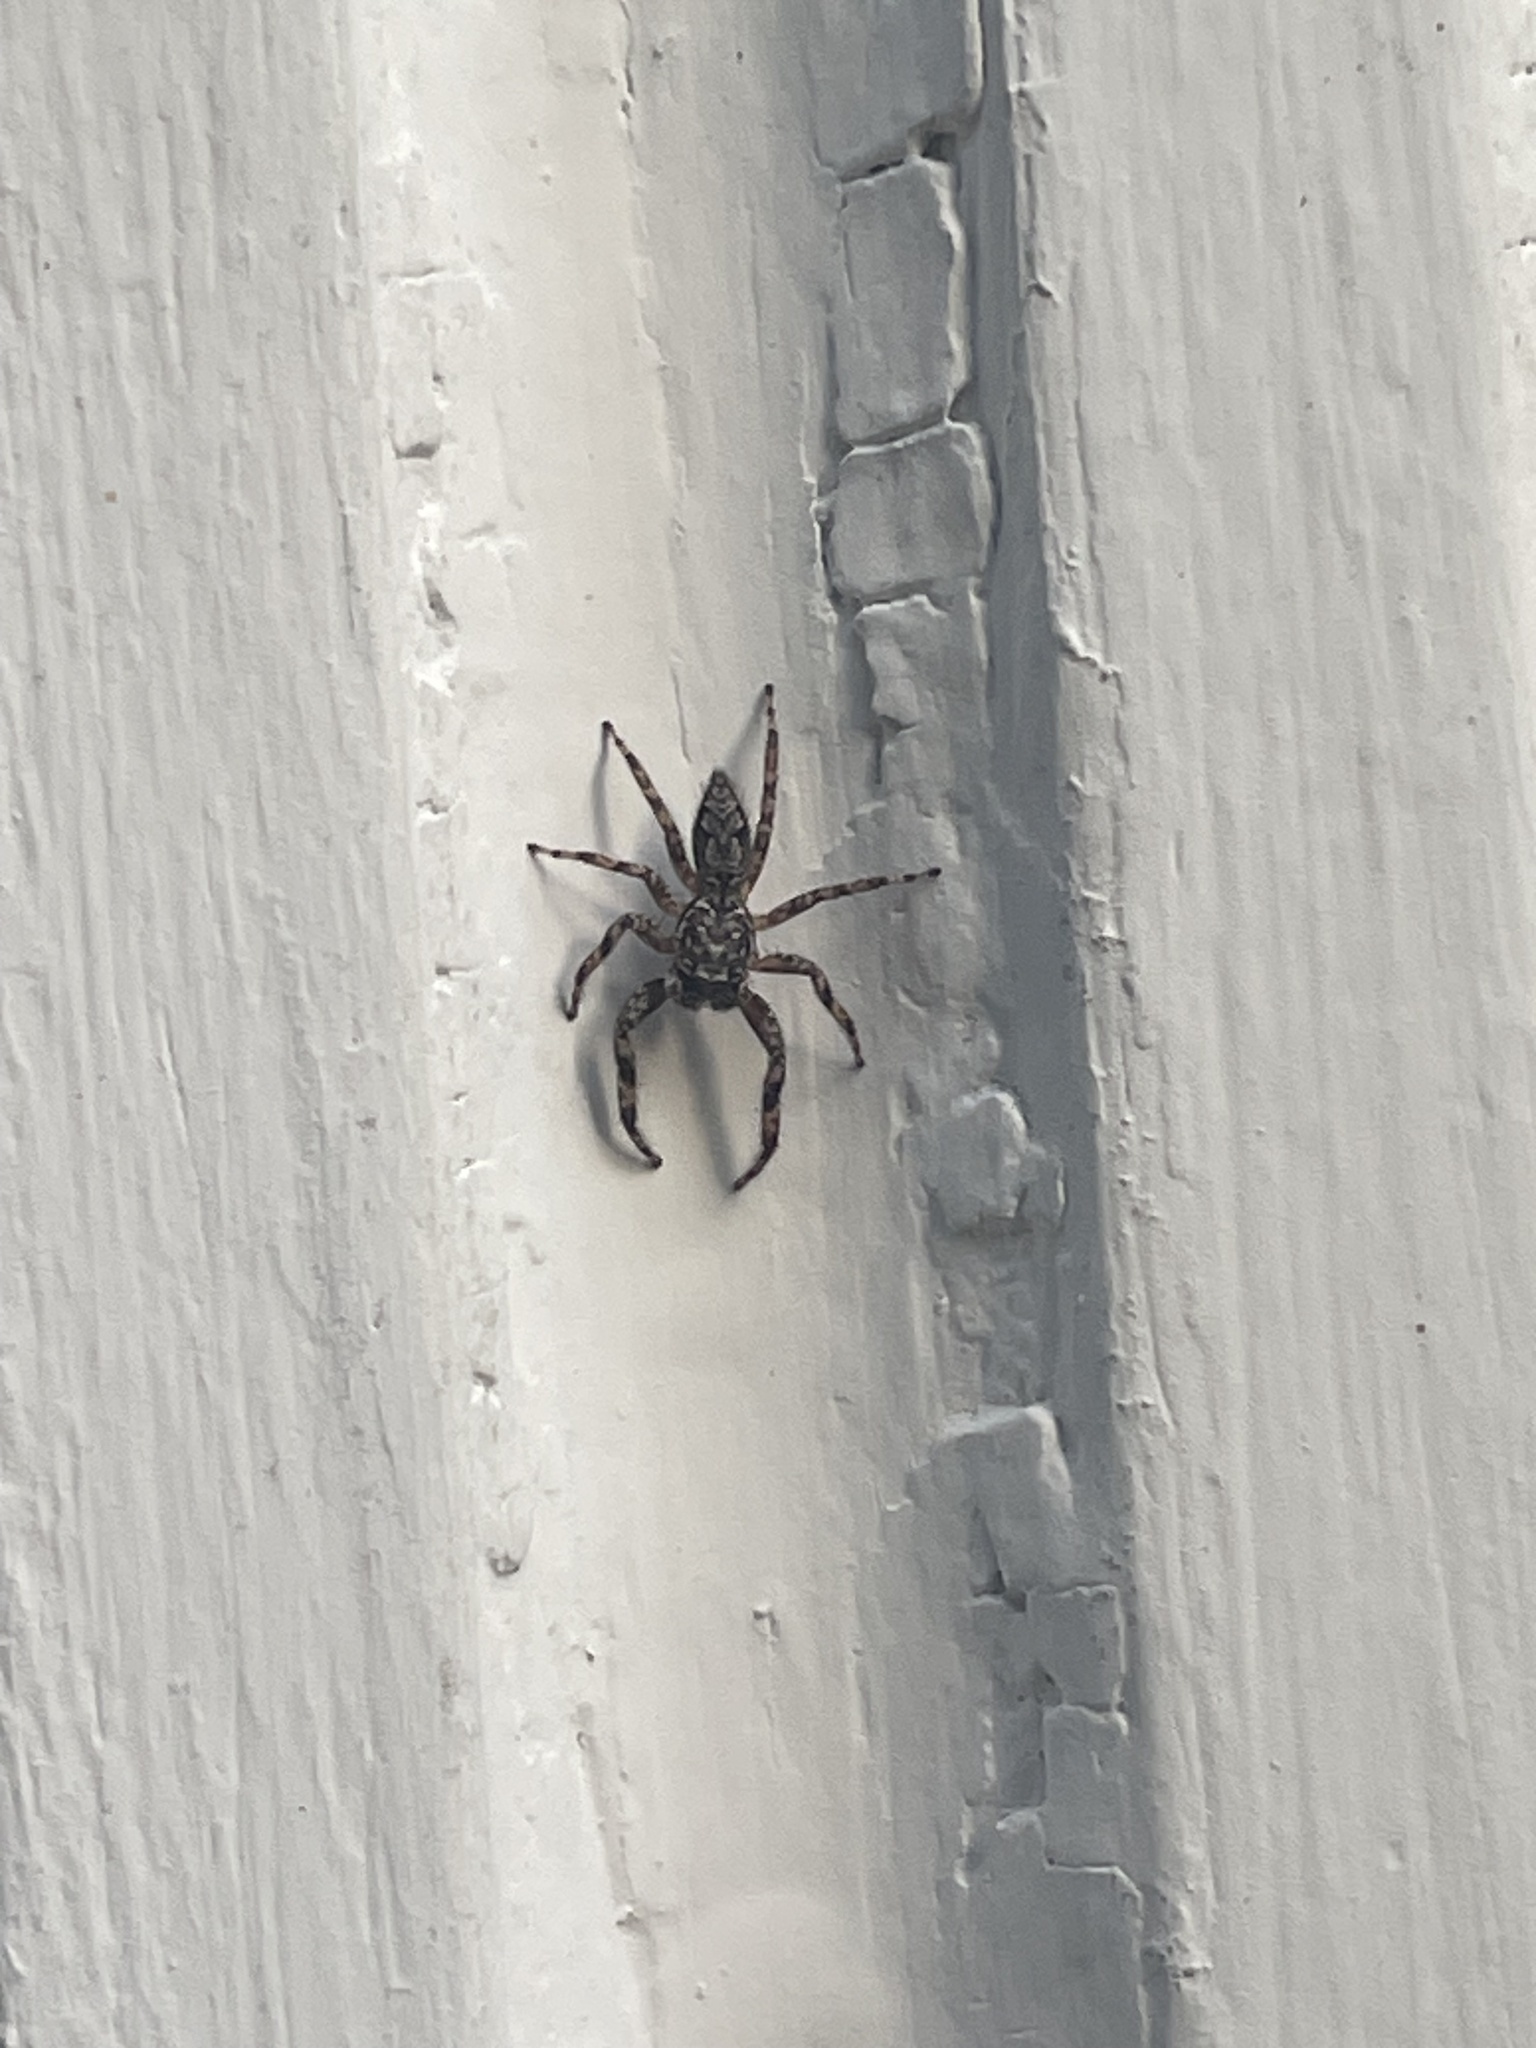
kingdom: Animalia
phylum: Arthropoda
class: Arachnida
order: Araneae
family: Salticidae
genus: Platycryptus
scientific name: Platycryptus undatus
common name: Tan jumping spider
